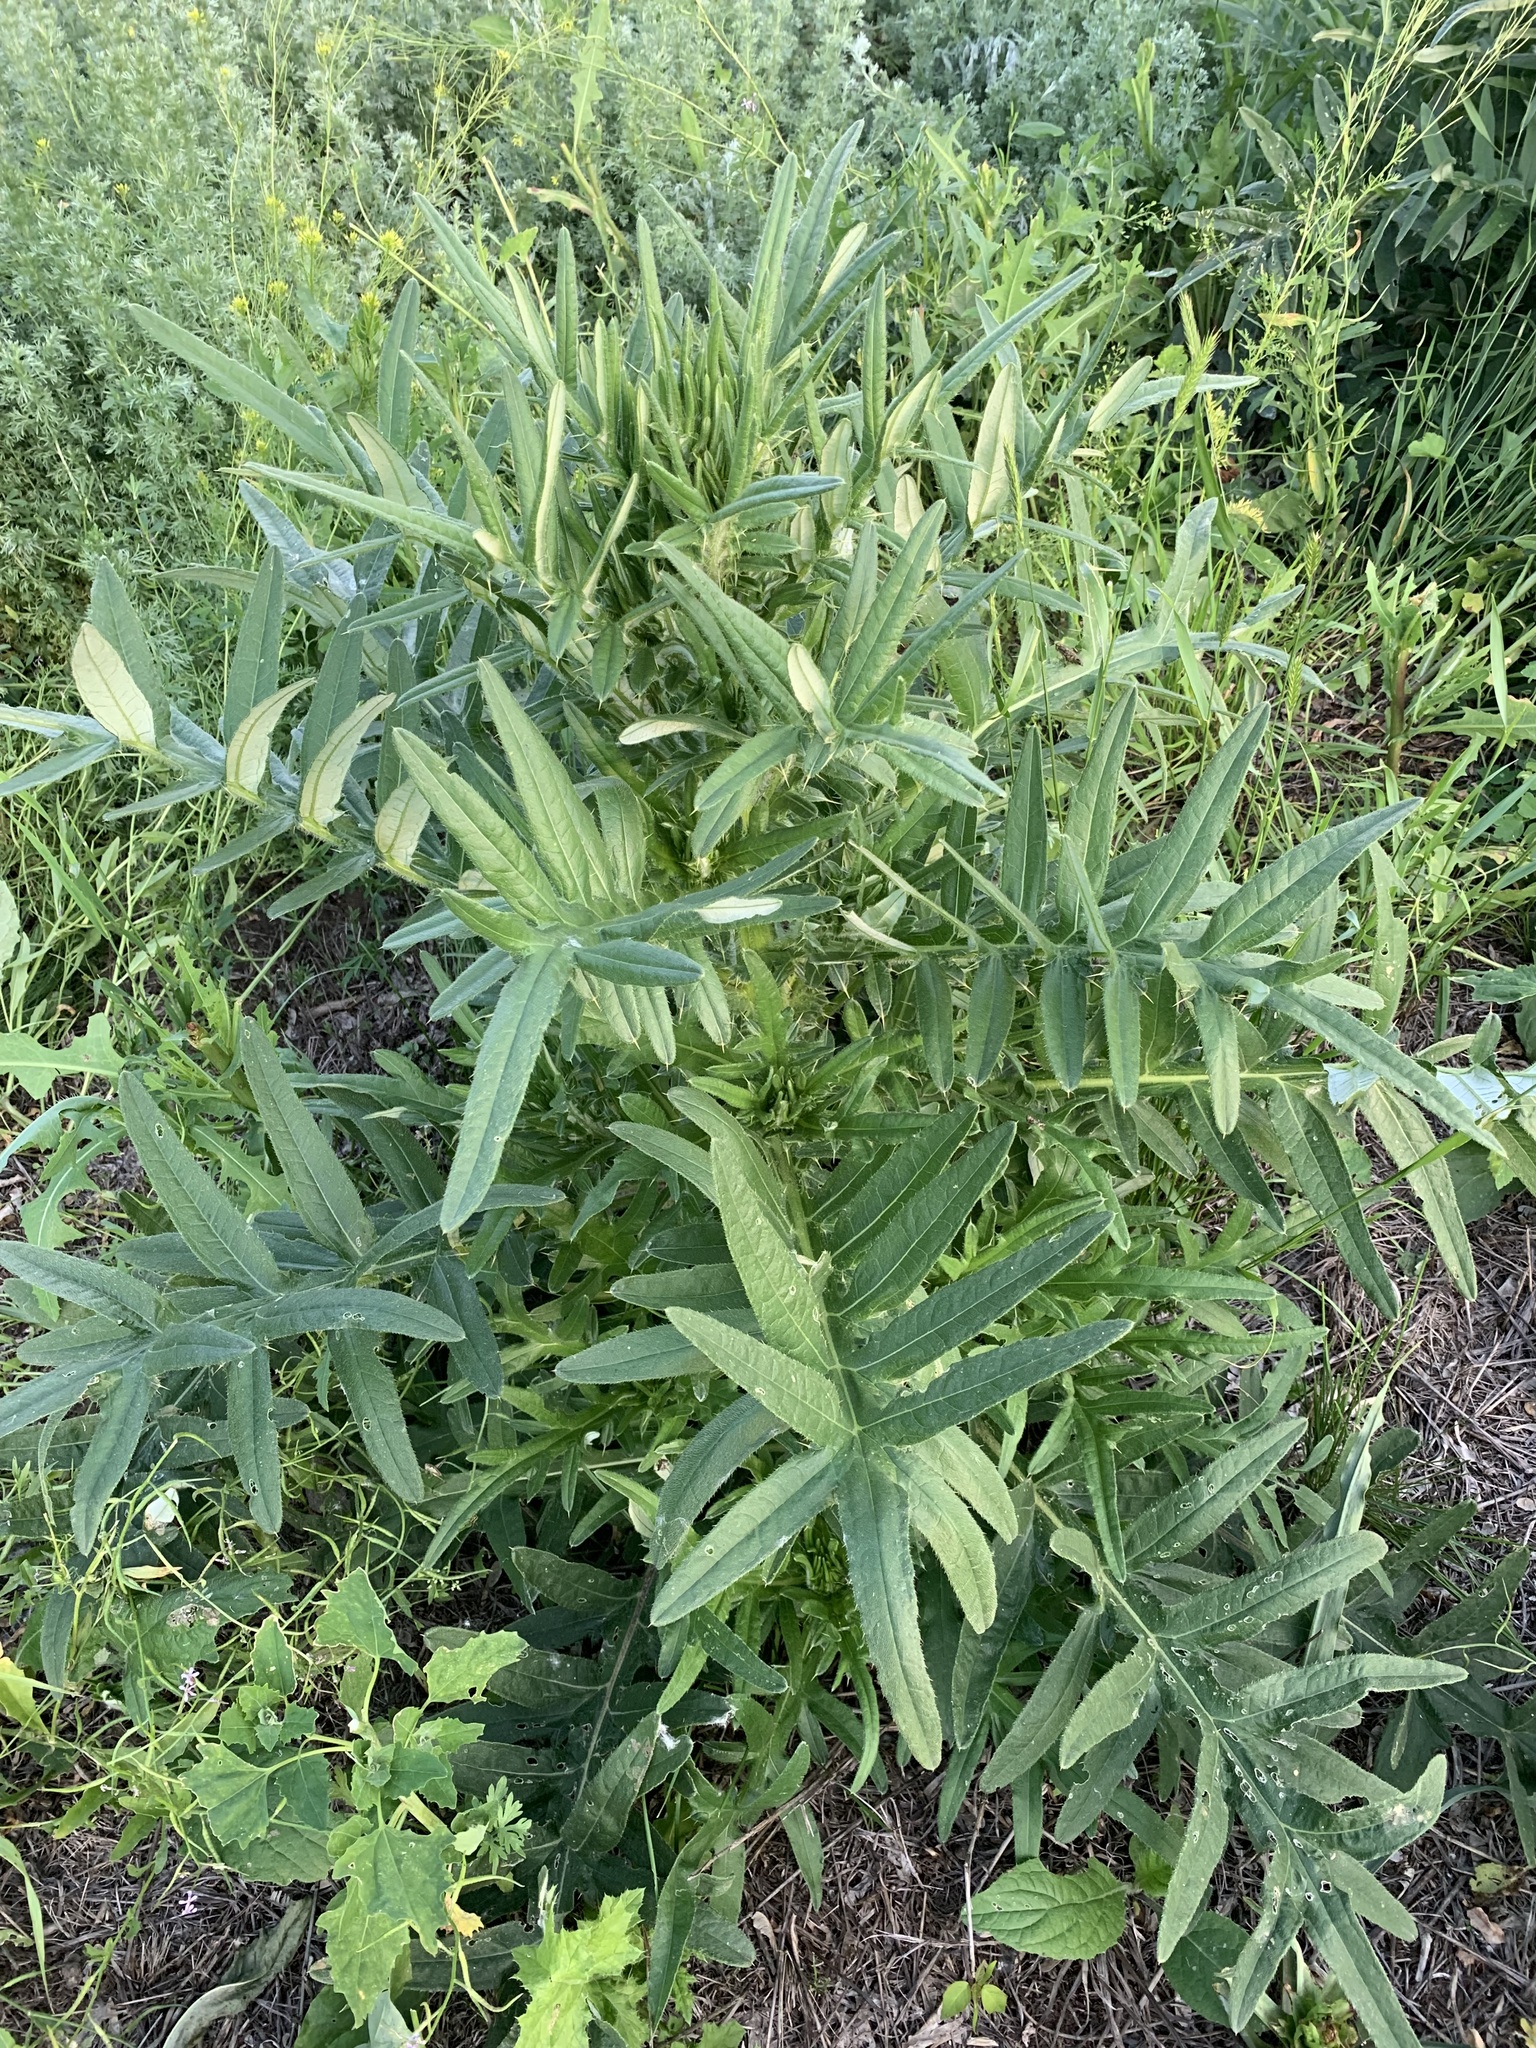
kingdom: Plantae
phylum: Tracheophyta
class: Magnoliopsida
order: Asterales
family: Asteraceae
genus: Cirsium
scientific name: Cirsium serrulatum
